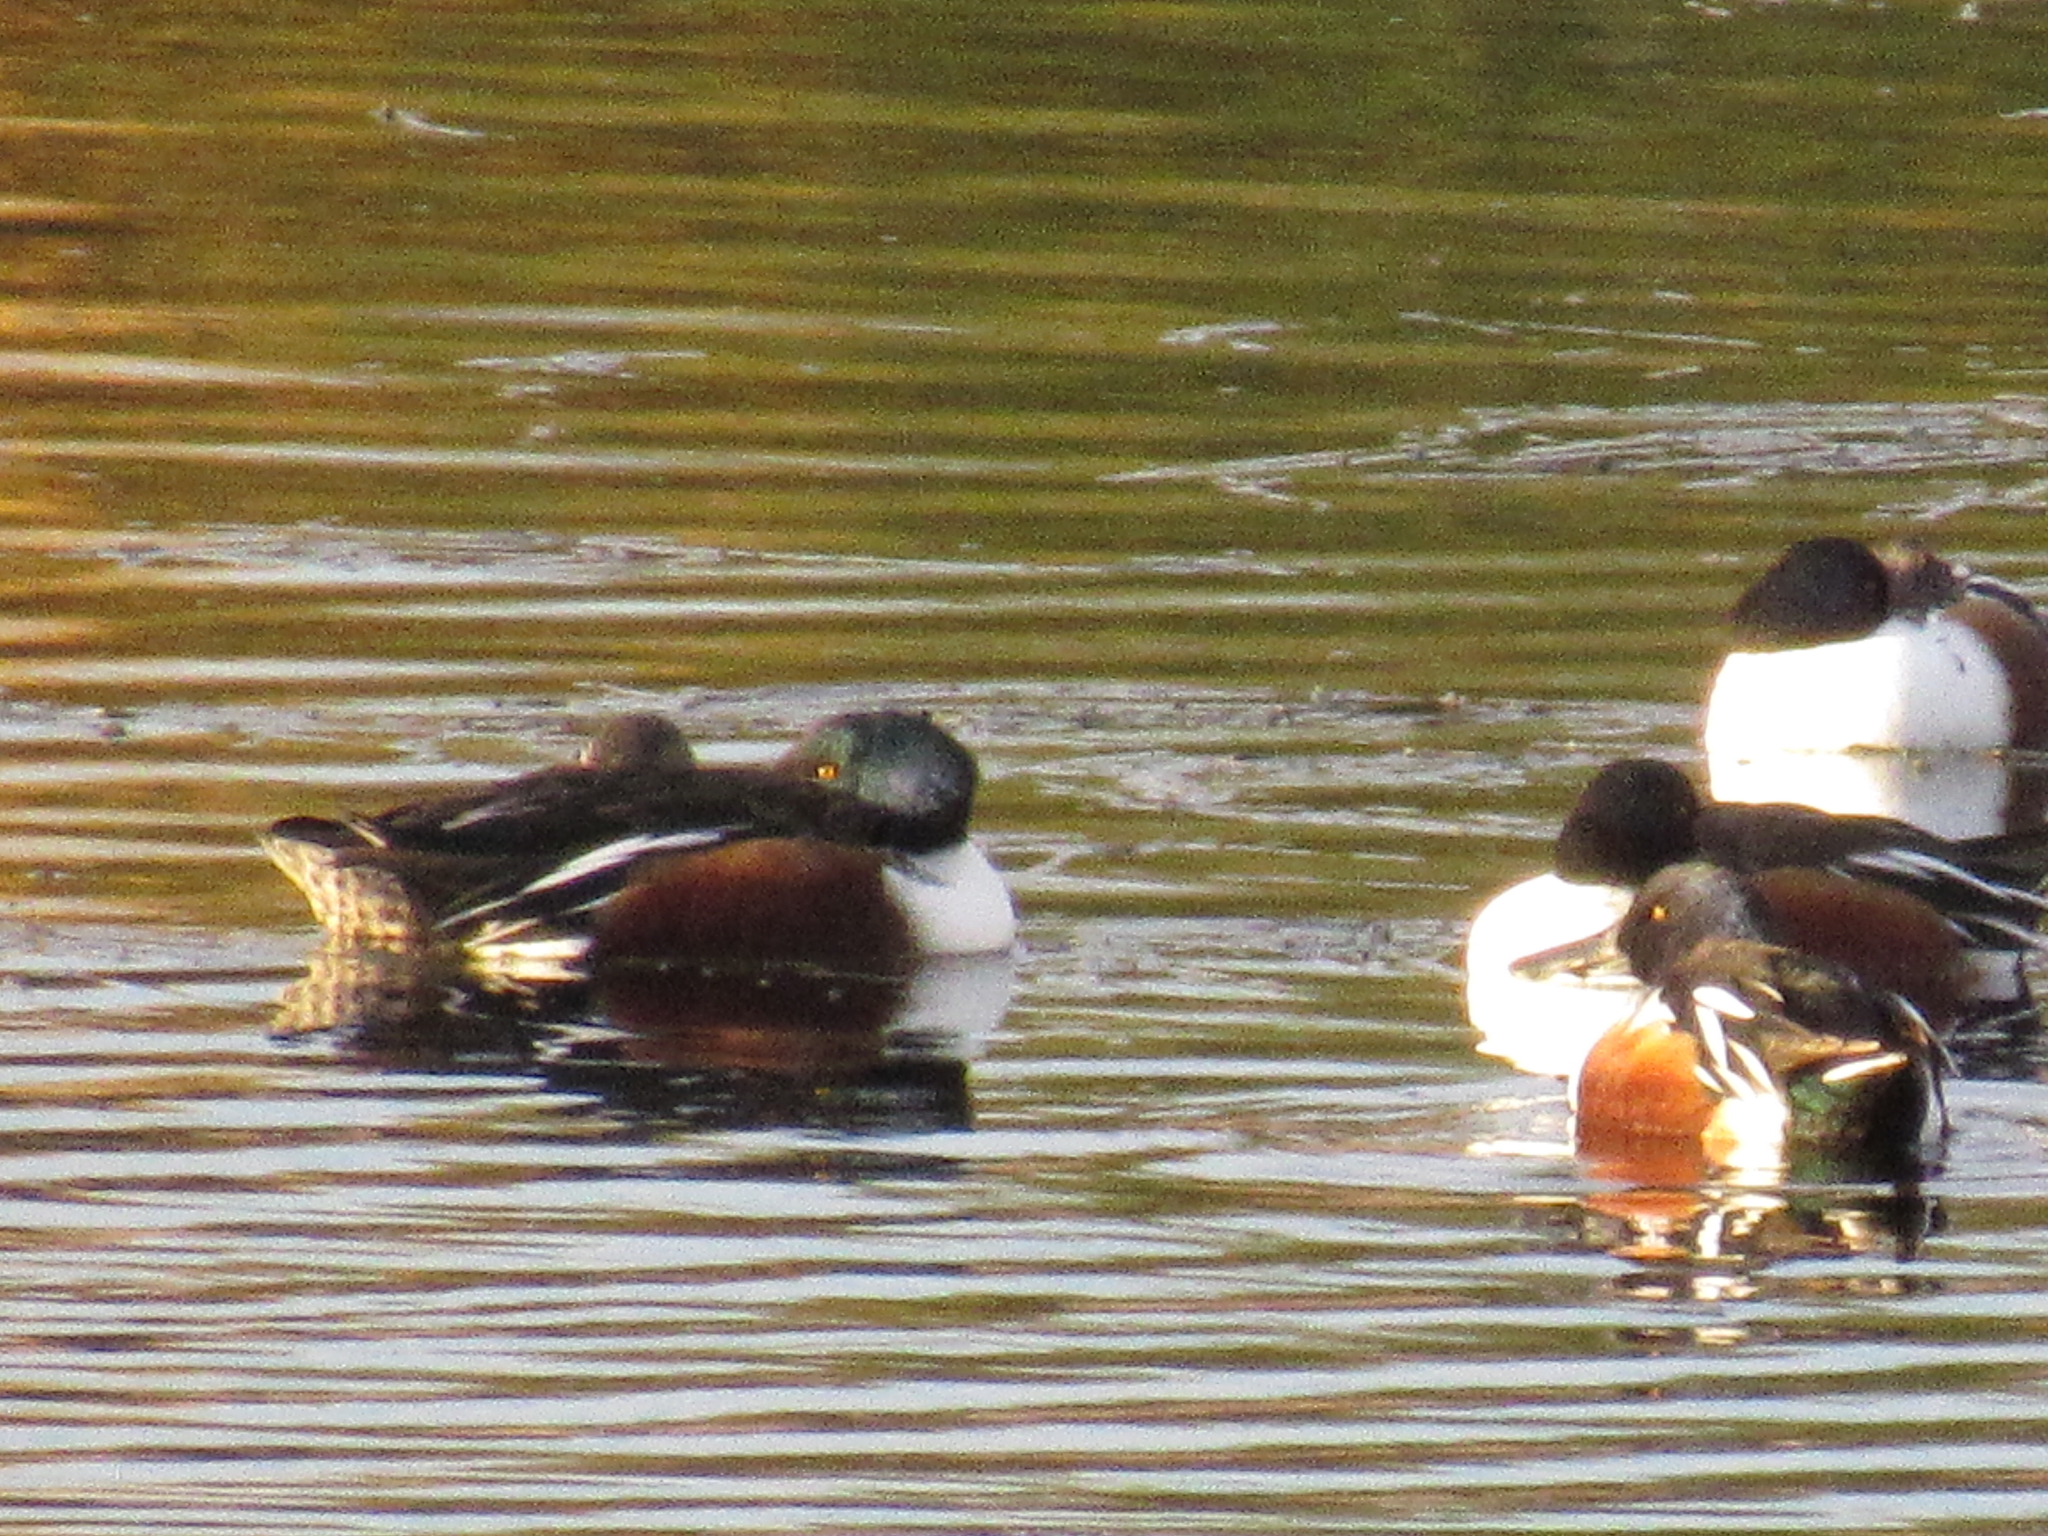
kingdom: Animalia
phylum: Chordata
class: Aves
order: Anseriformes
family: Anatidae
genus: Spatula
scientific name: Spatula clypeata
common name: Northern shoveler
